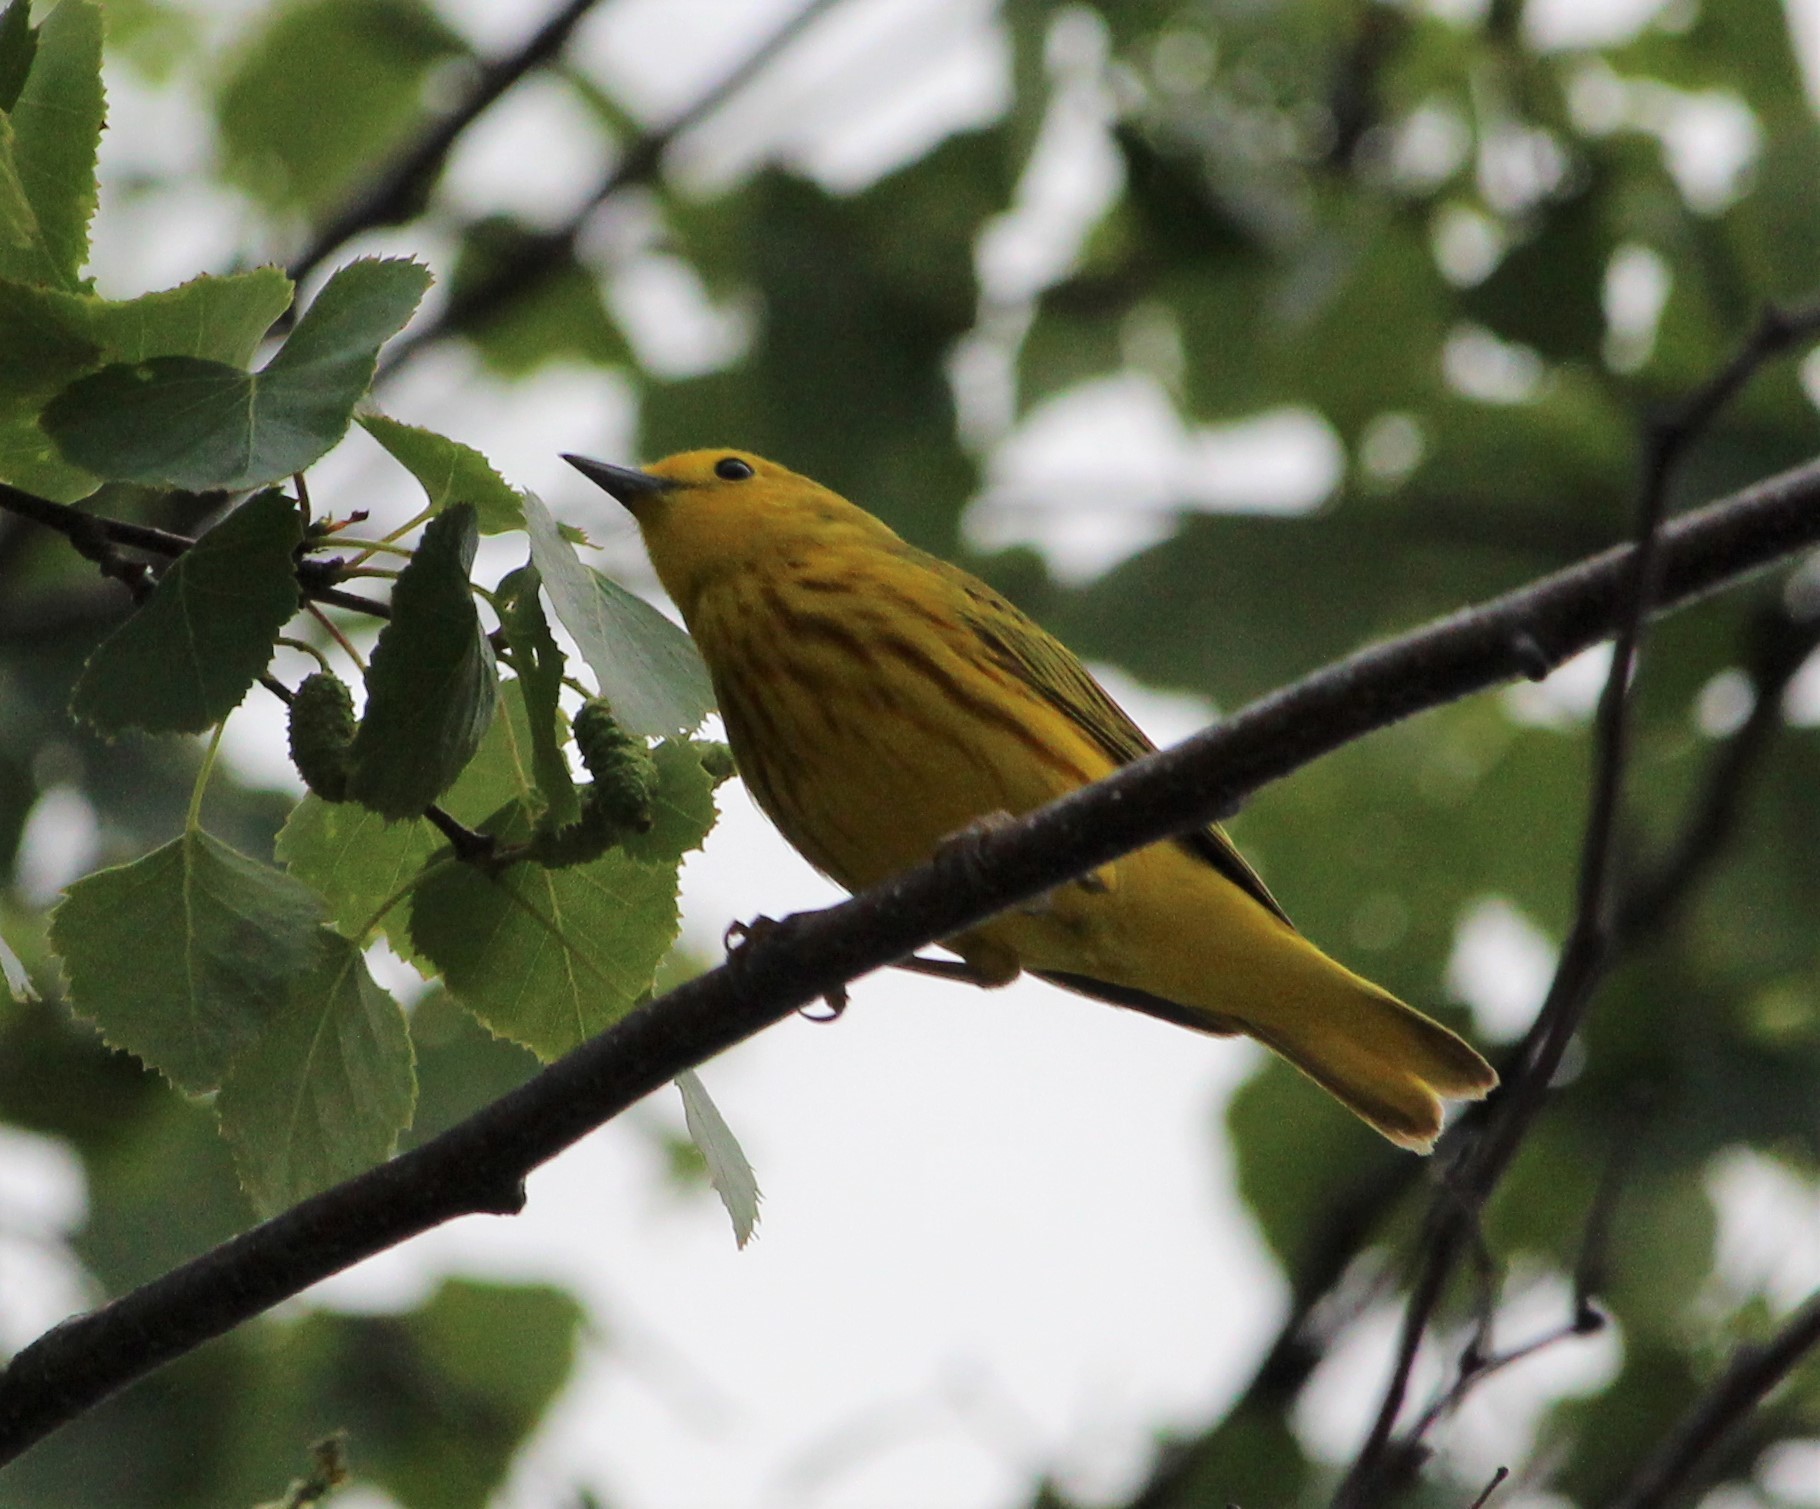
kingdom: Animalia
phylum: Chordata
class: Aves
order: Passeriformes
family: Parulidae
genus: Setophaga
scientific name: Setophaga petechia
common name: Yellow warbler
